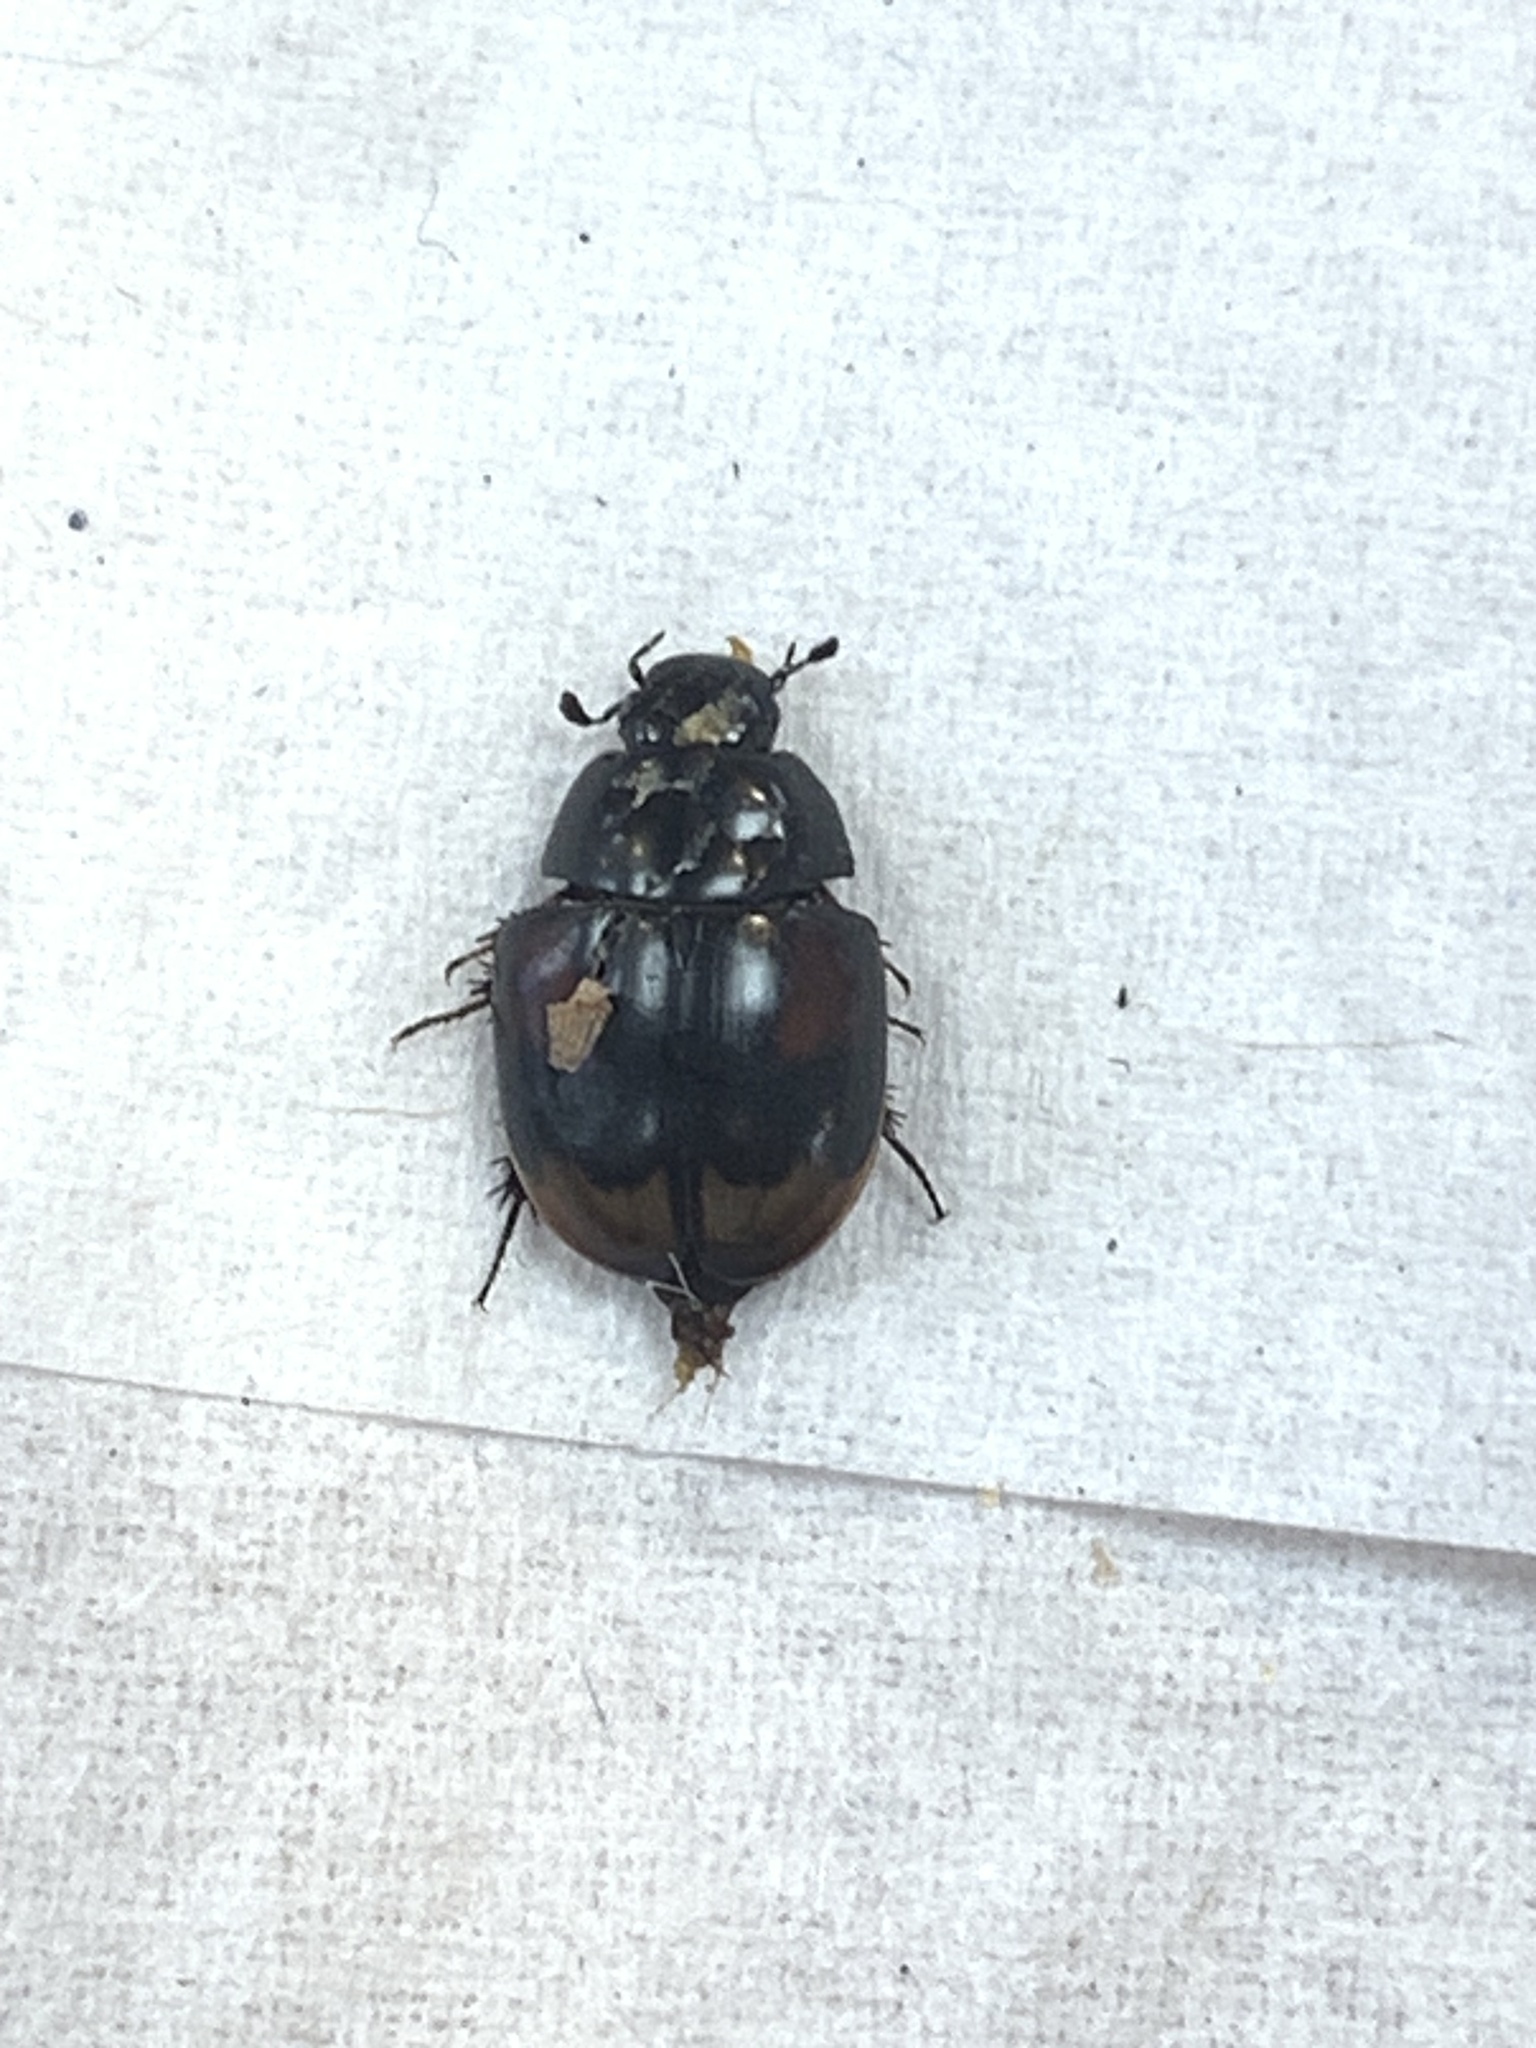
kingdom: Animalia
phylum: Arthropoda
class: Insecta
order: Coleoptera
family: Hydrophilidae
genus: Sphaeridium
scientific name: Sphaeridium scarabaeoides
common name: Water scavenger beetle
